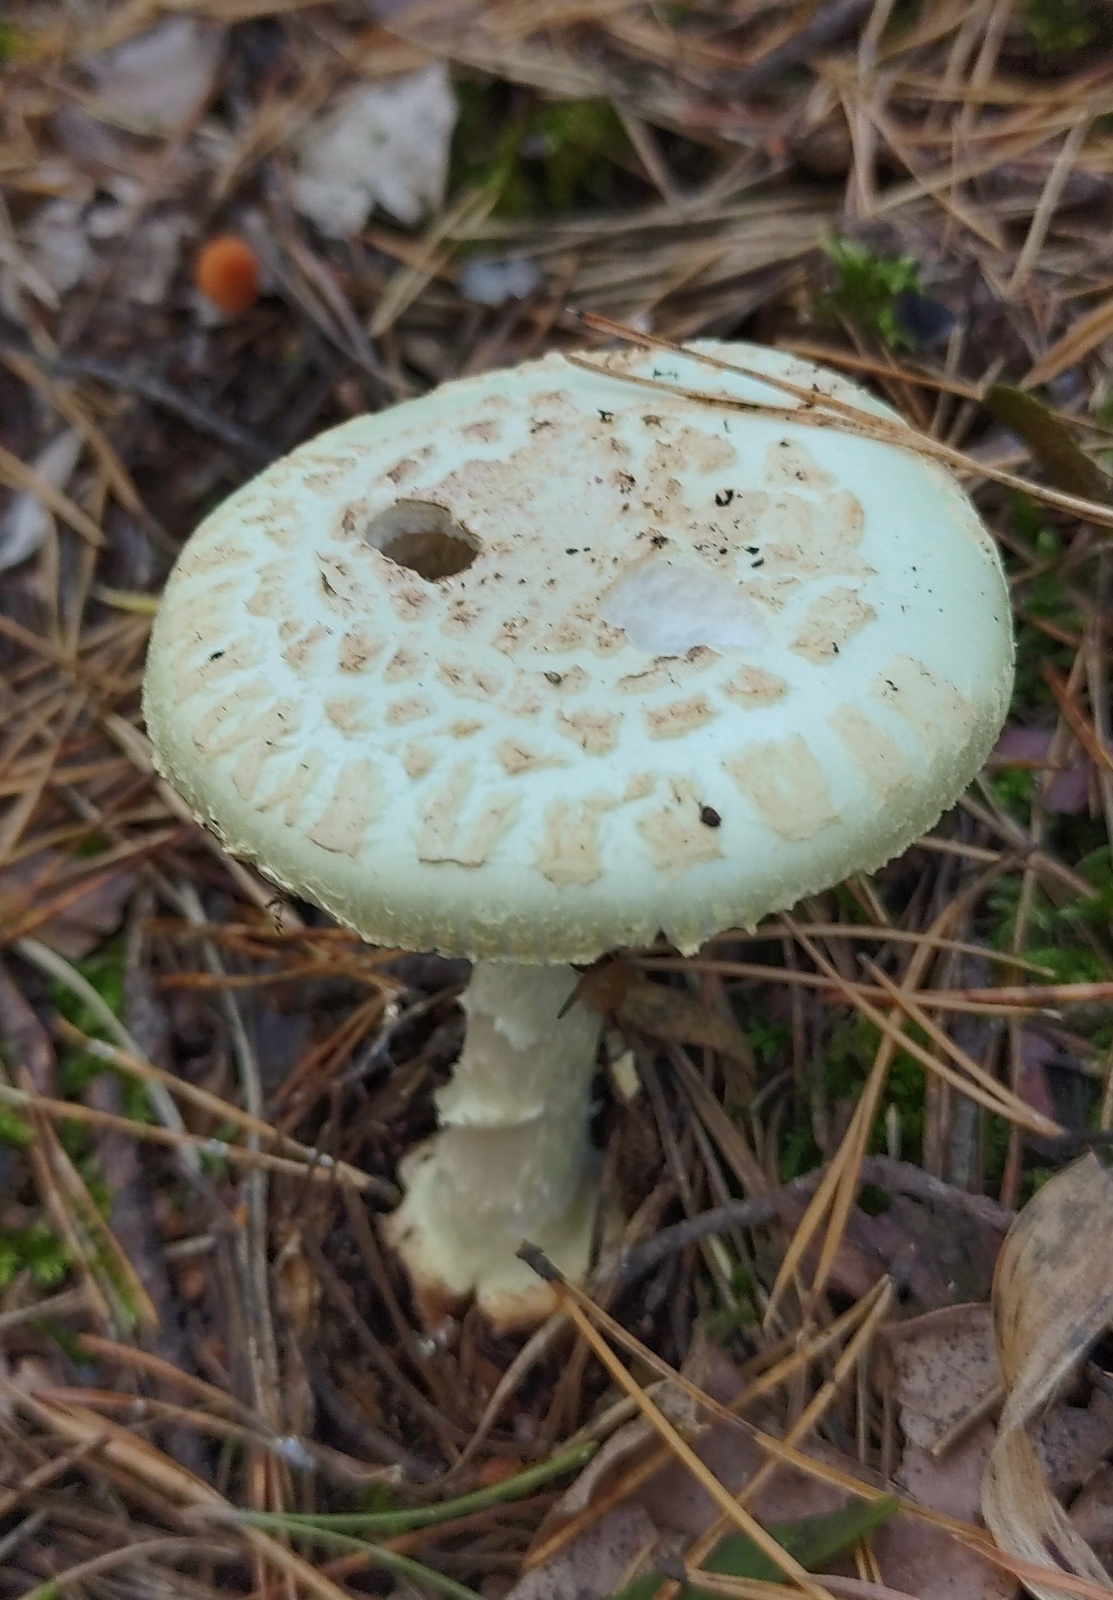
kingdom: Fungi
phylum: Basidiomycota
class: Agaricomycetes
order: Agaricales
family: Amanitaceae
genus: Amanita
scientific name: Amanita citrina
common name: False death-cap
